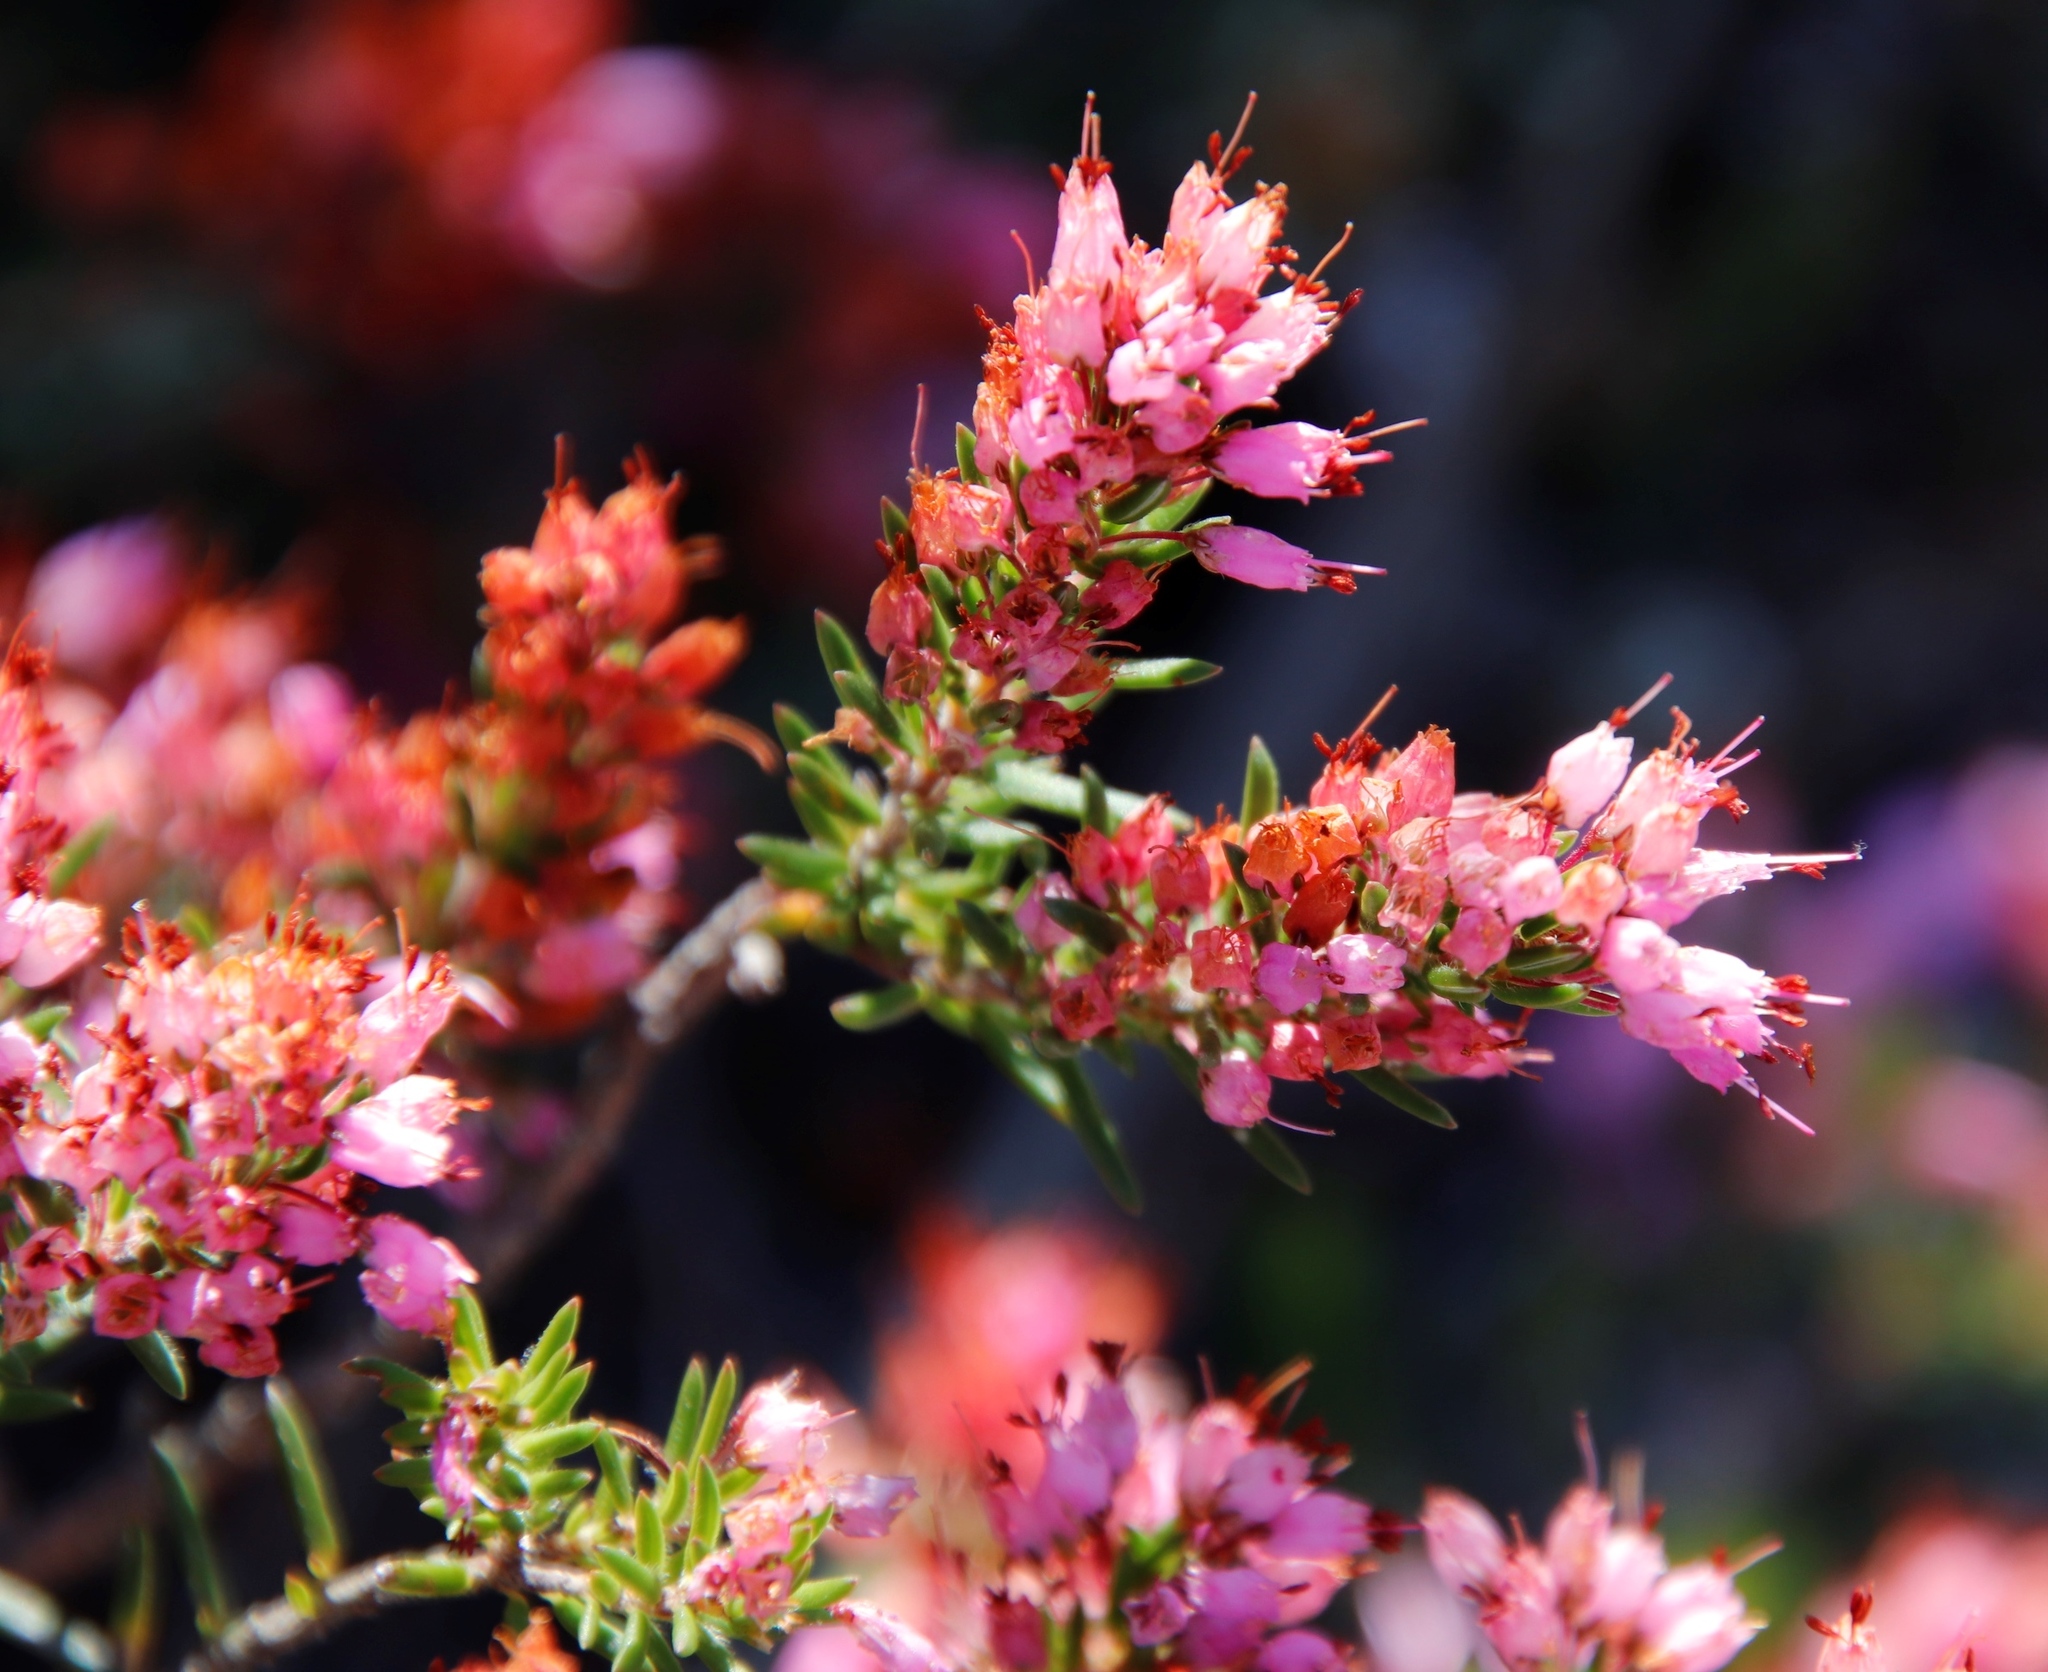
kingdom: Plantae
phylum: Tracheophyta
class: Magnoliopsida
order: Ericales
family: Ericaceae
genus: Erica
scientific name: Erica nudiflora
